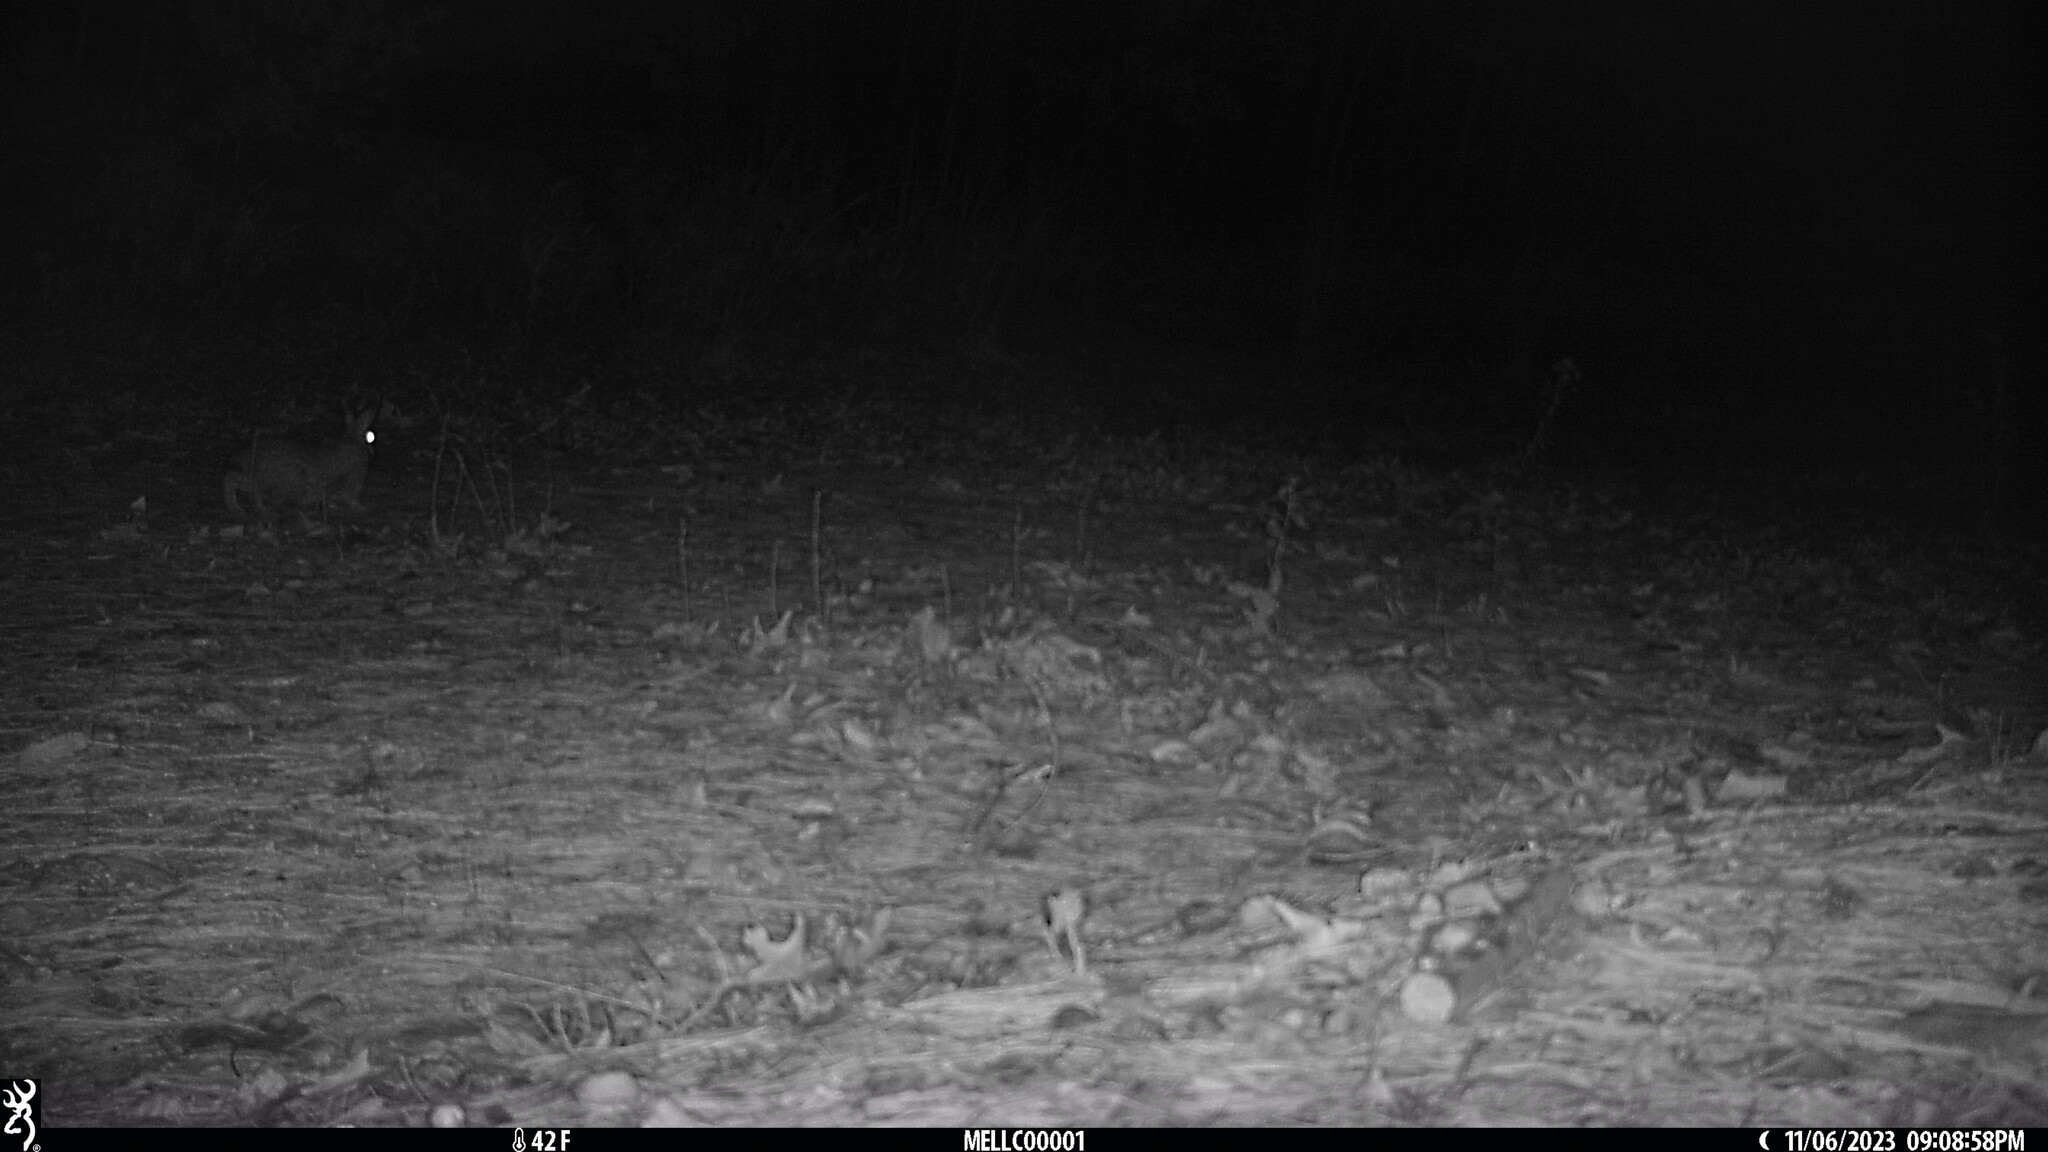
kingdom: Animalia
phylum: Chordata
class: Mammalia
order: Lagomorpha
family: Leporidae
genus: Sylvilagus
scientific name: Sylvilagus floridanus
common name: Eastern cottontail
